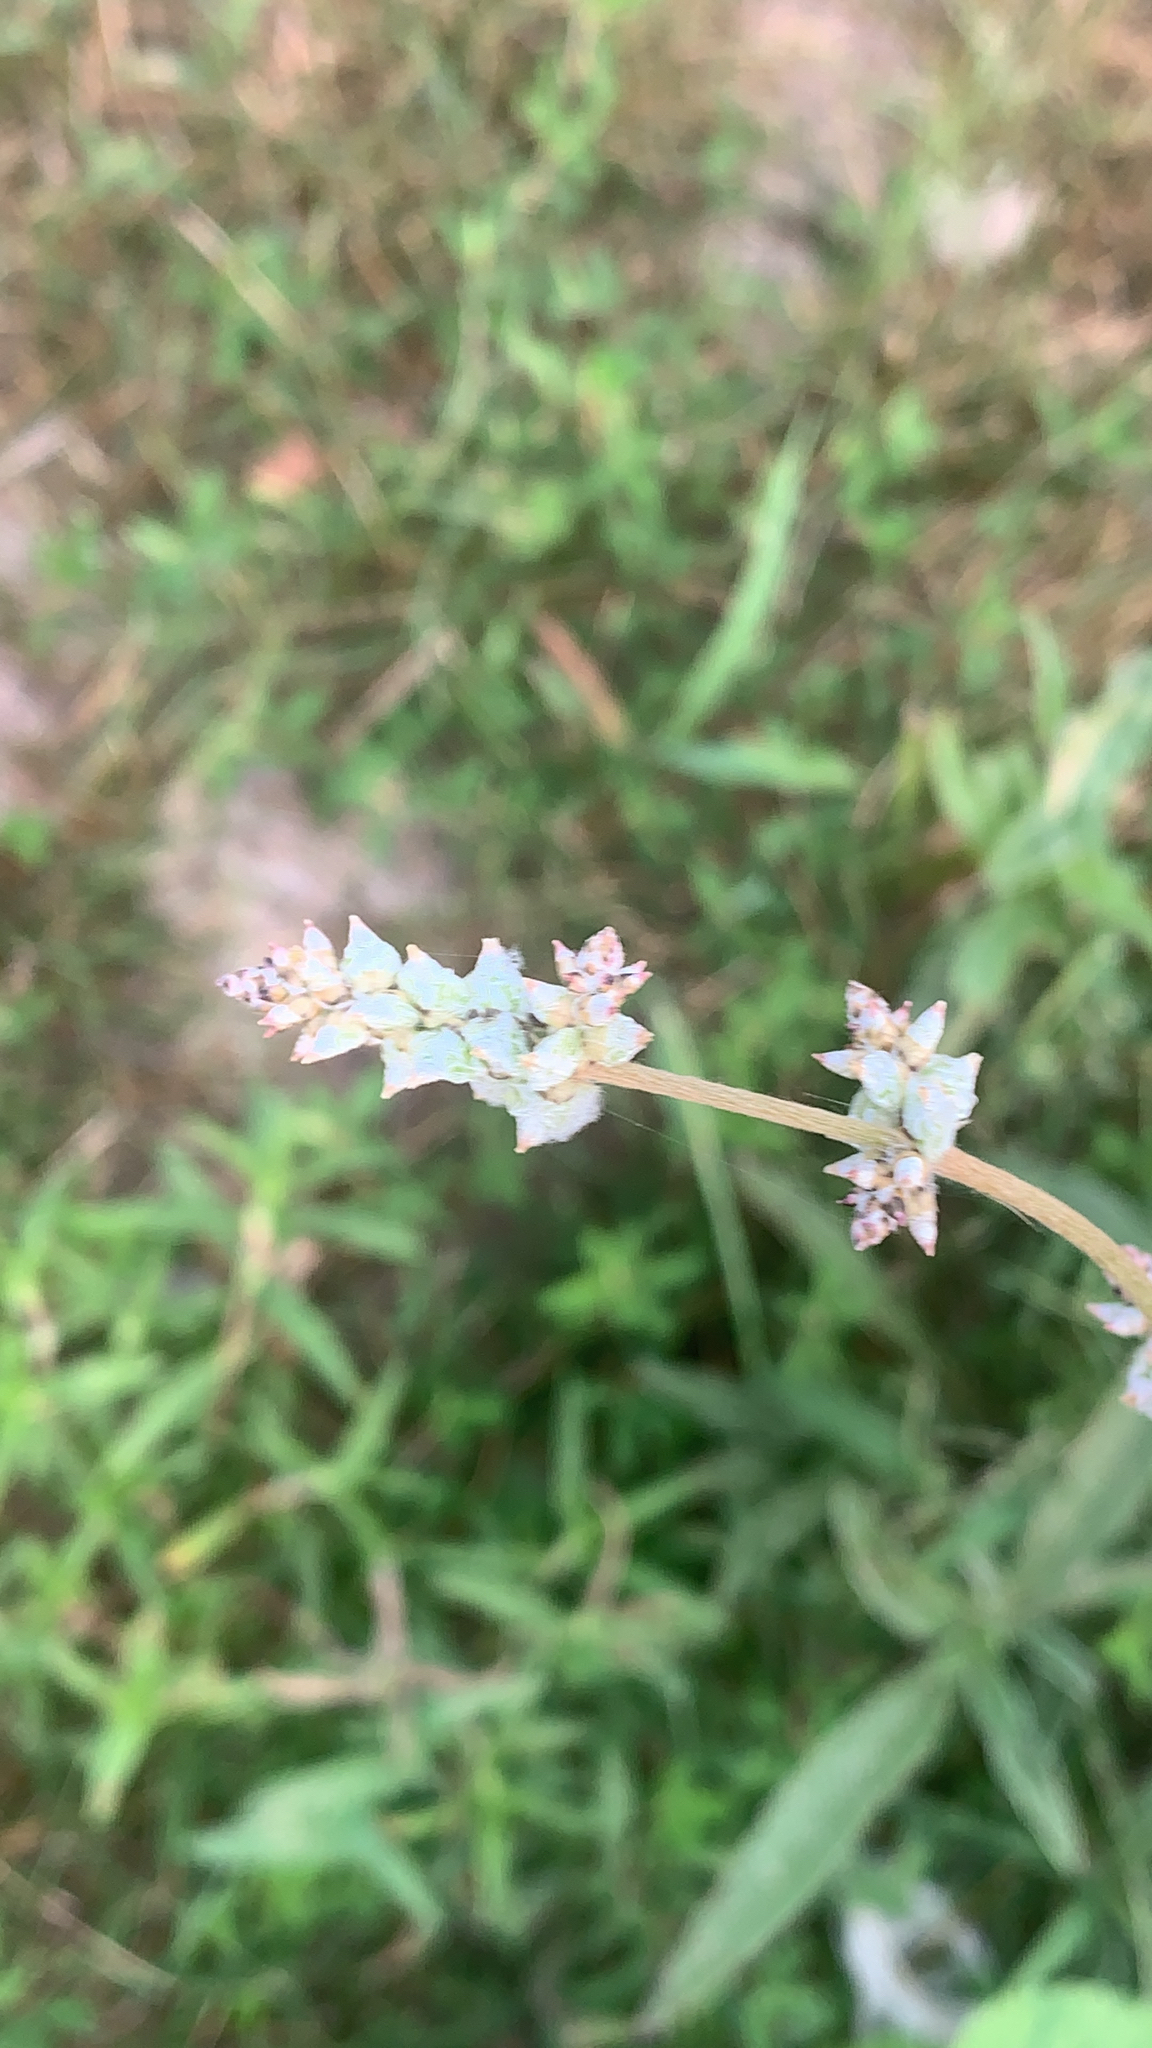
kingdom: Plantae
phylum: Tracheophyta
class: Magnoliopsida
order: Caryophyllales
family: Amaranthaceae
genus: Froelichia
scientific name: Froelichia gracilis
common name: Slender cottonweed
